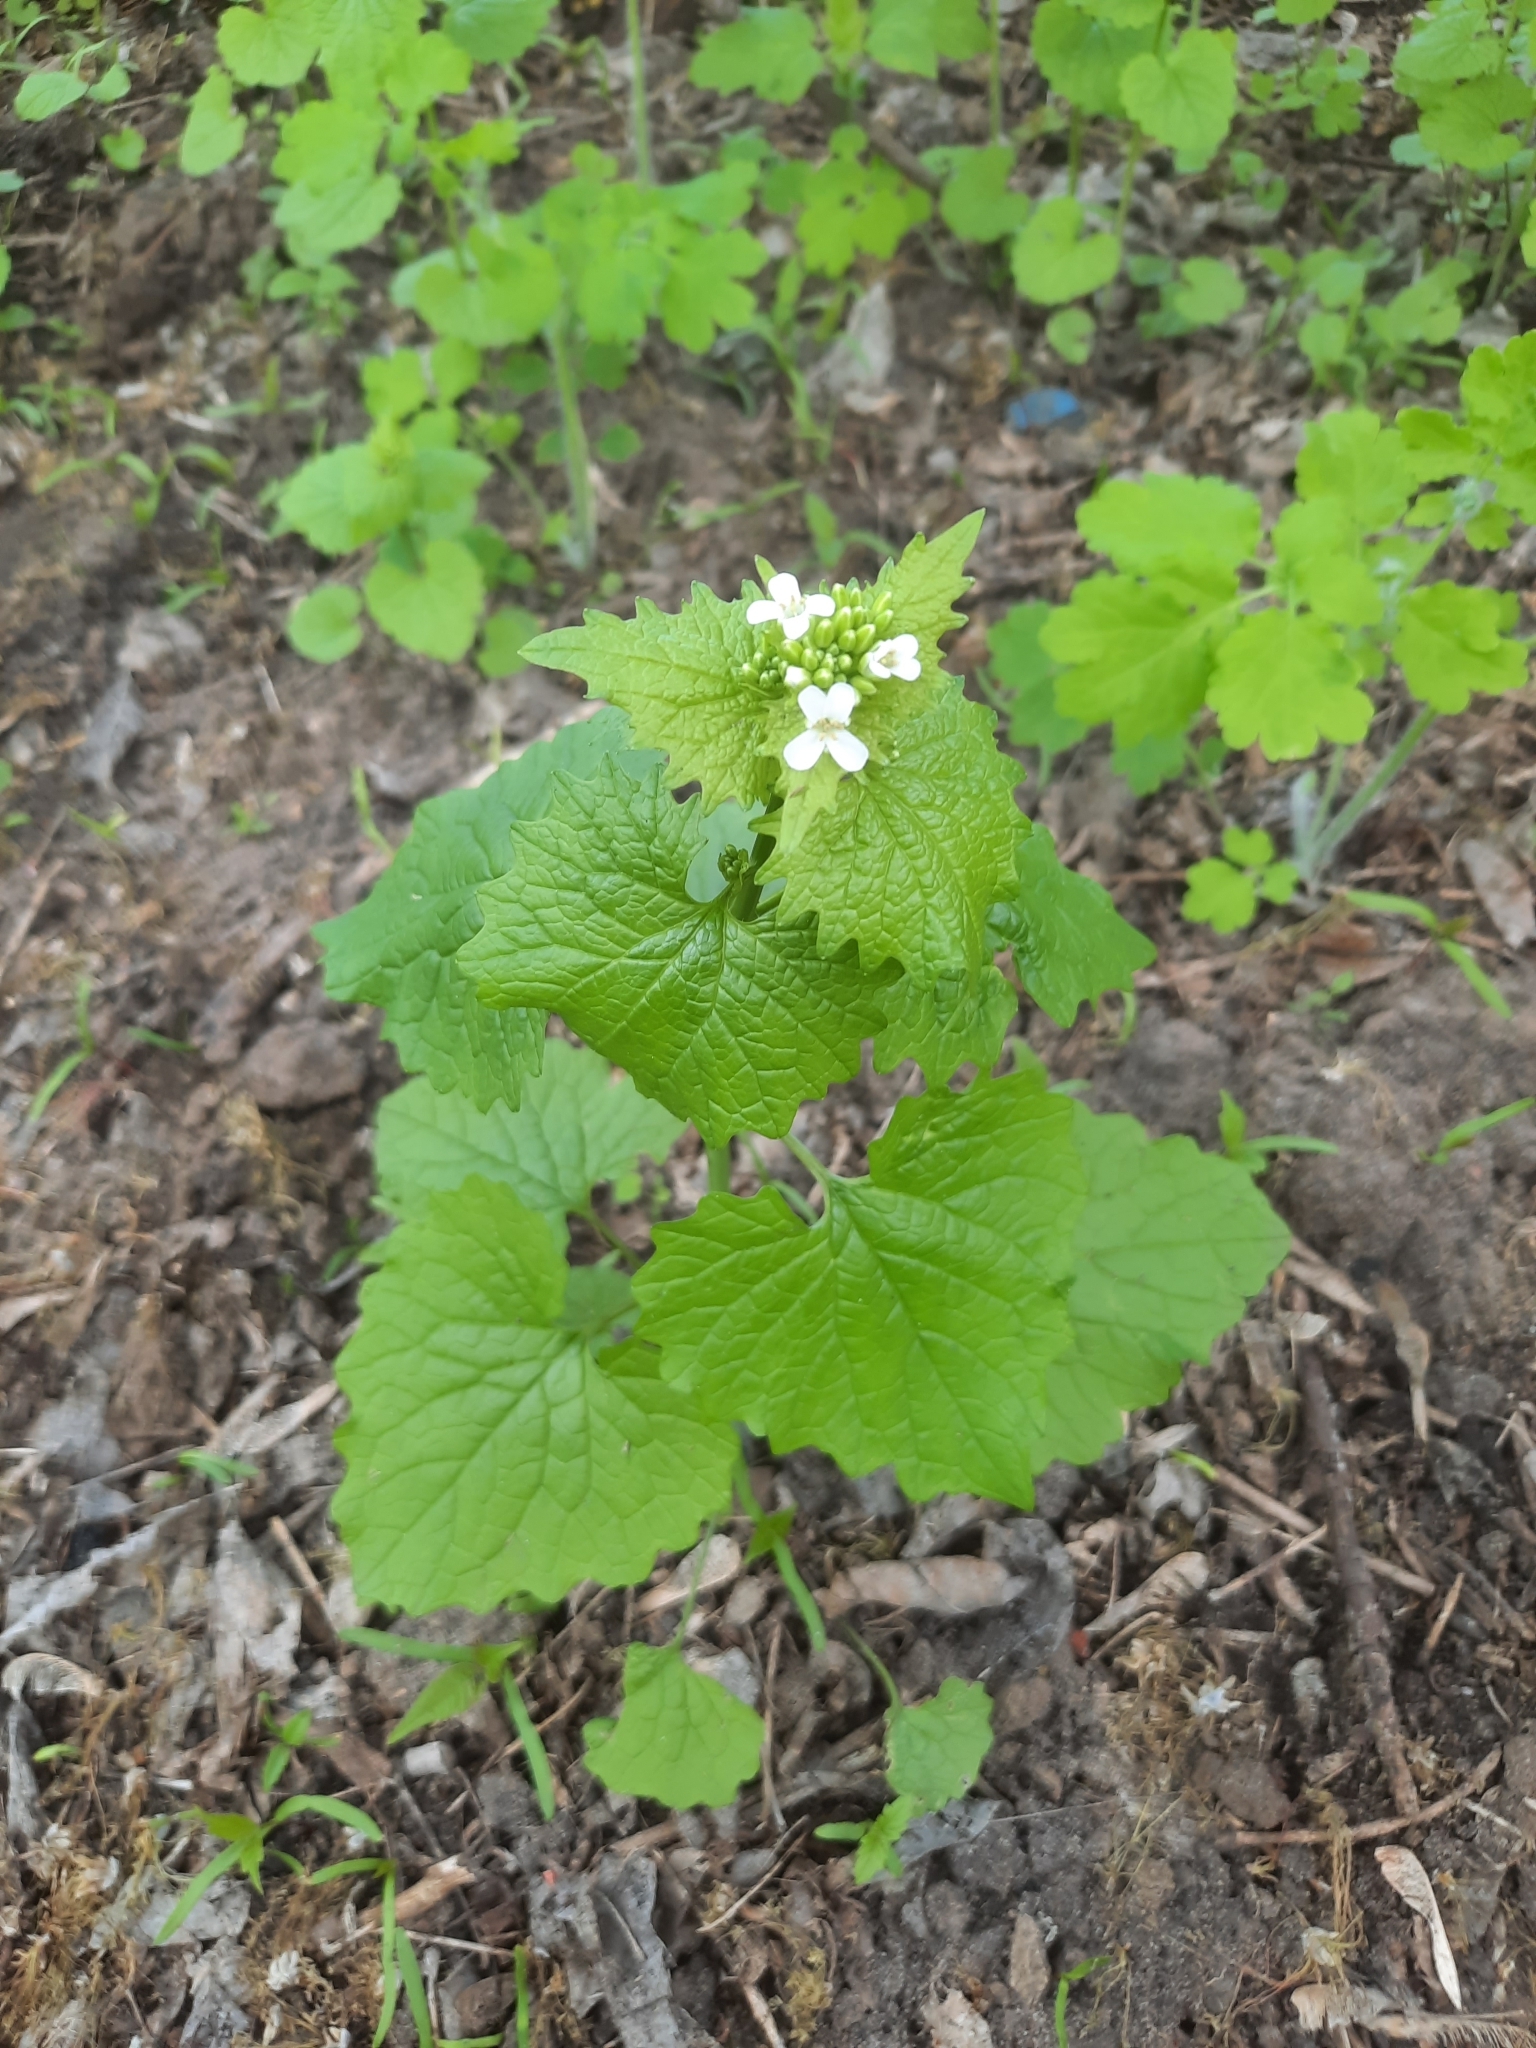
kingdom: Plantae
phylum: Tracheophyta
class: Magnoliopsida
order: Brassicales
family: Brassicaceae
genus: Alliaria
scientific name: Alliaria petiolata
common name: Garlic mustard
